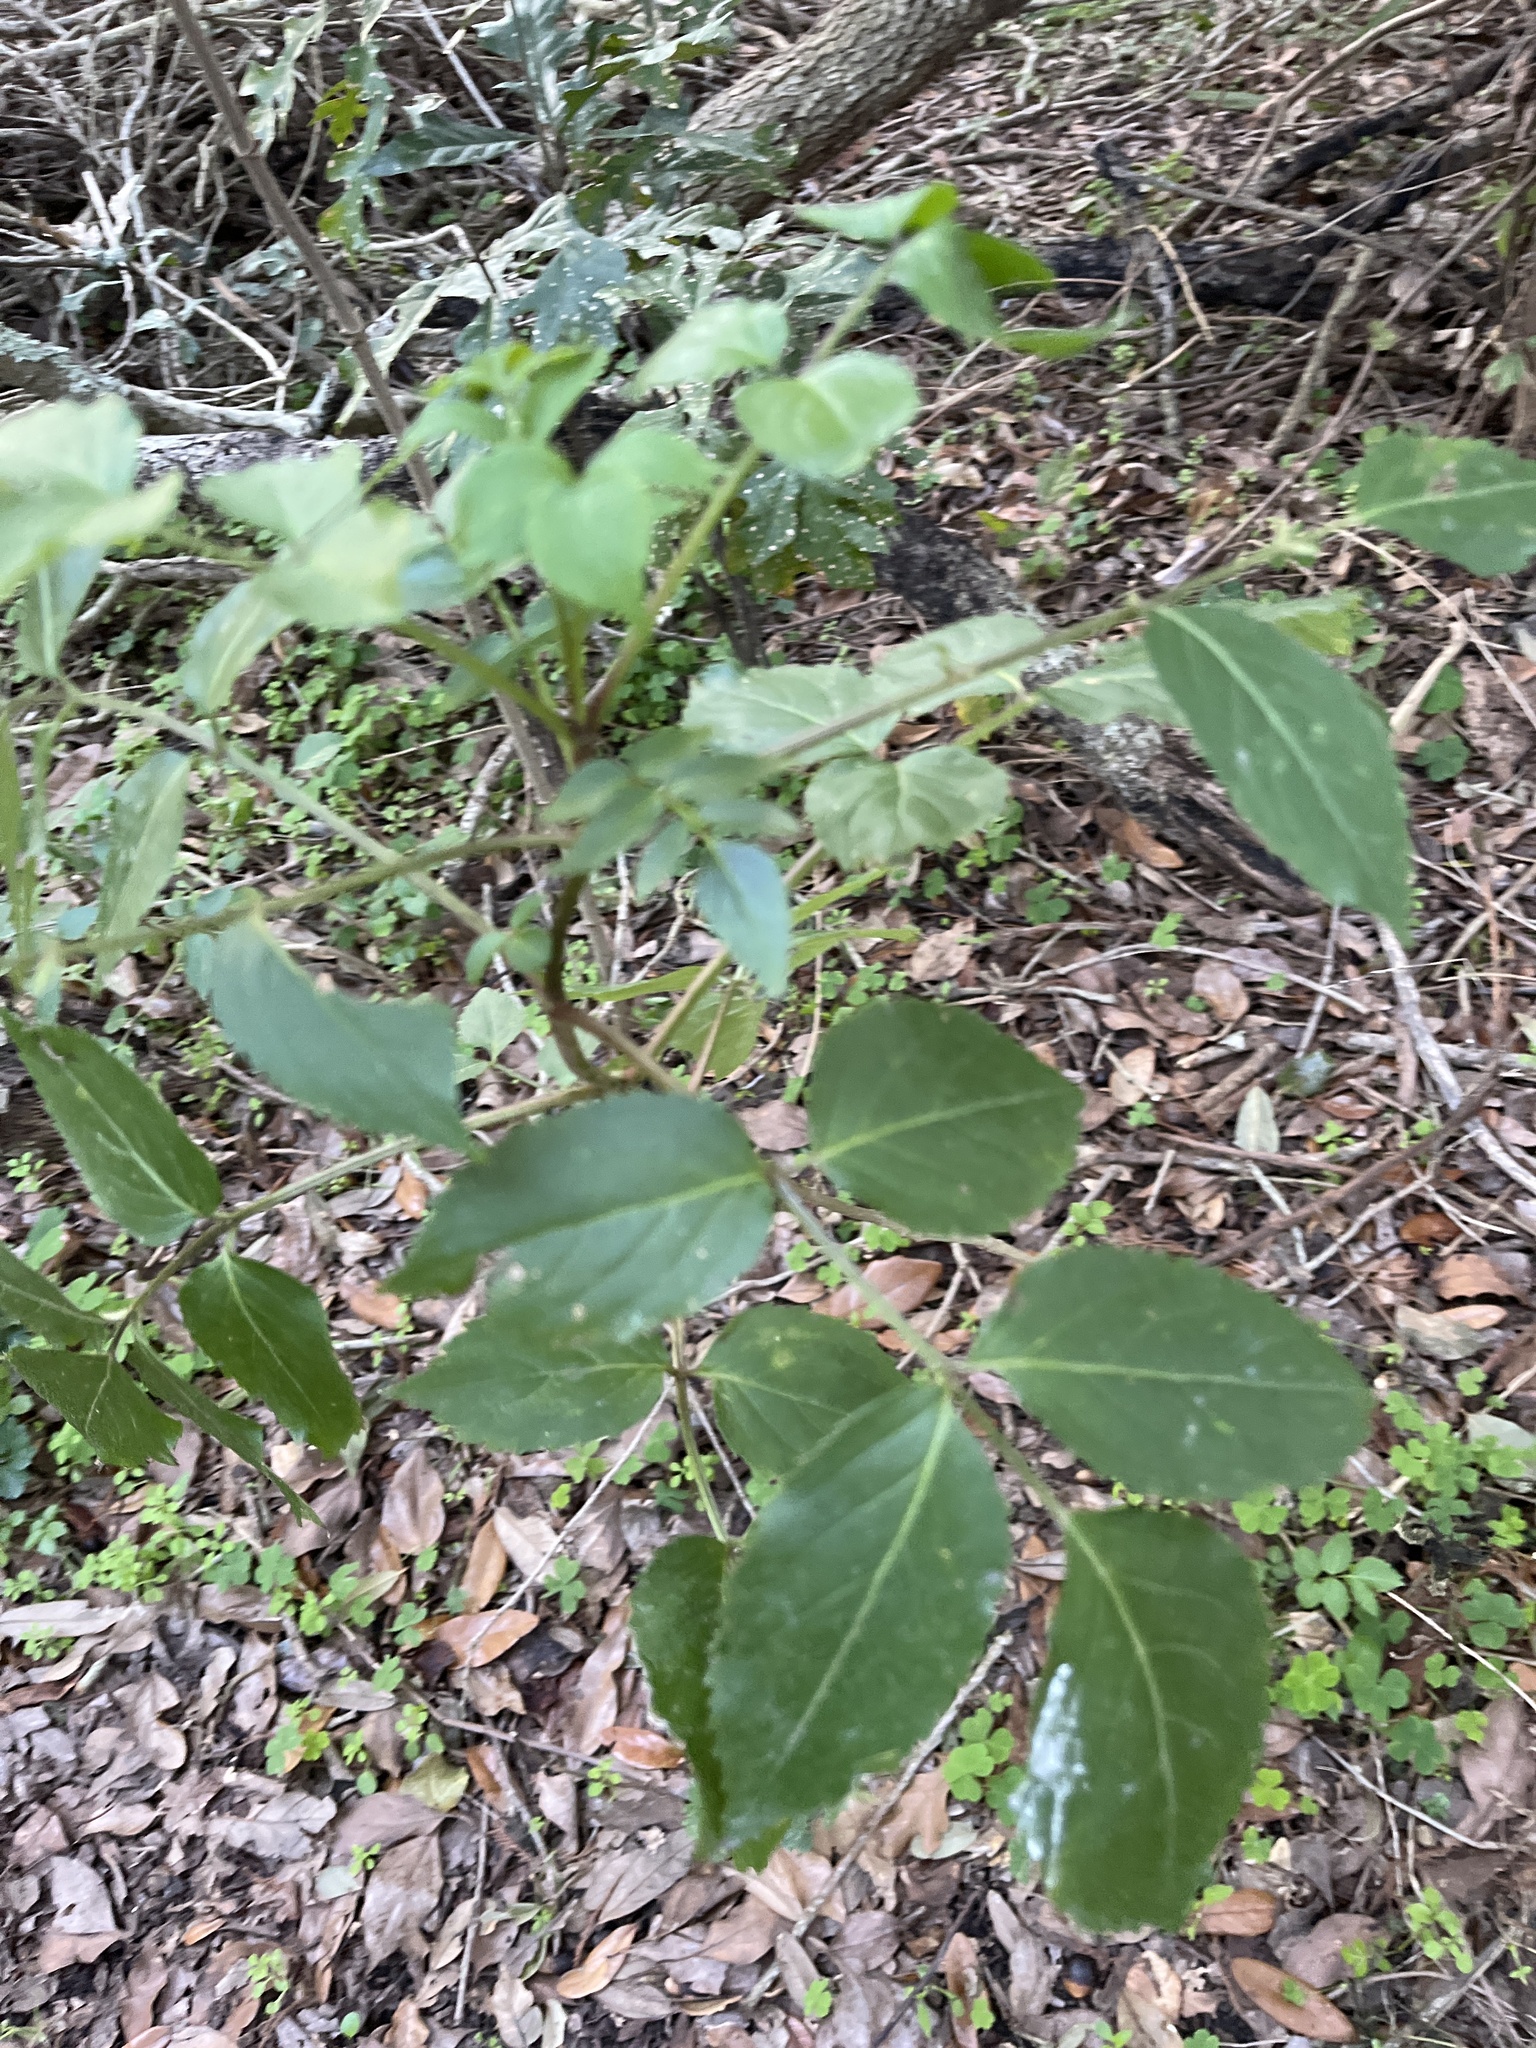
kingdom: Plantae
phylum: Tracheophyta
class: Magnoliopsida
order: Dipsacales
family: Viburnaceae
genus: Sambucus
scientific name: Sambucus canadensis
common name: American elder
